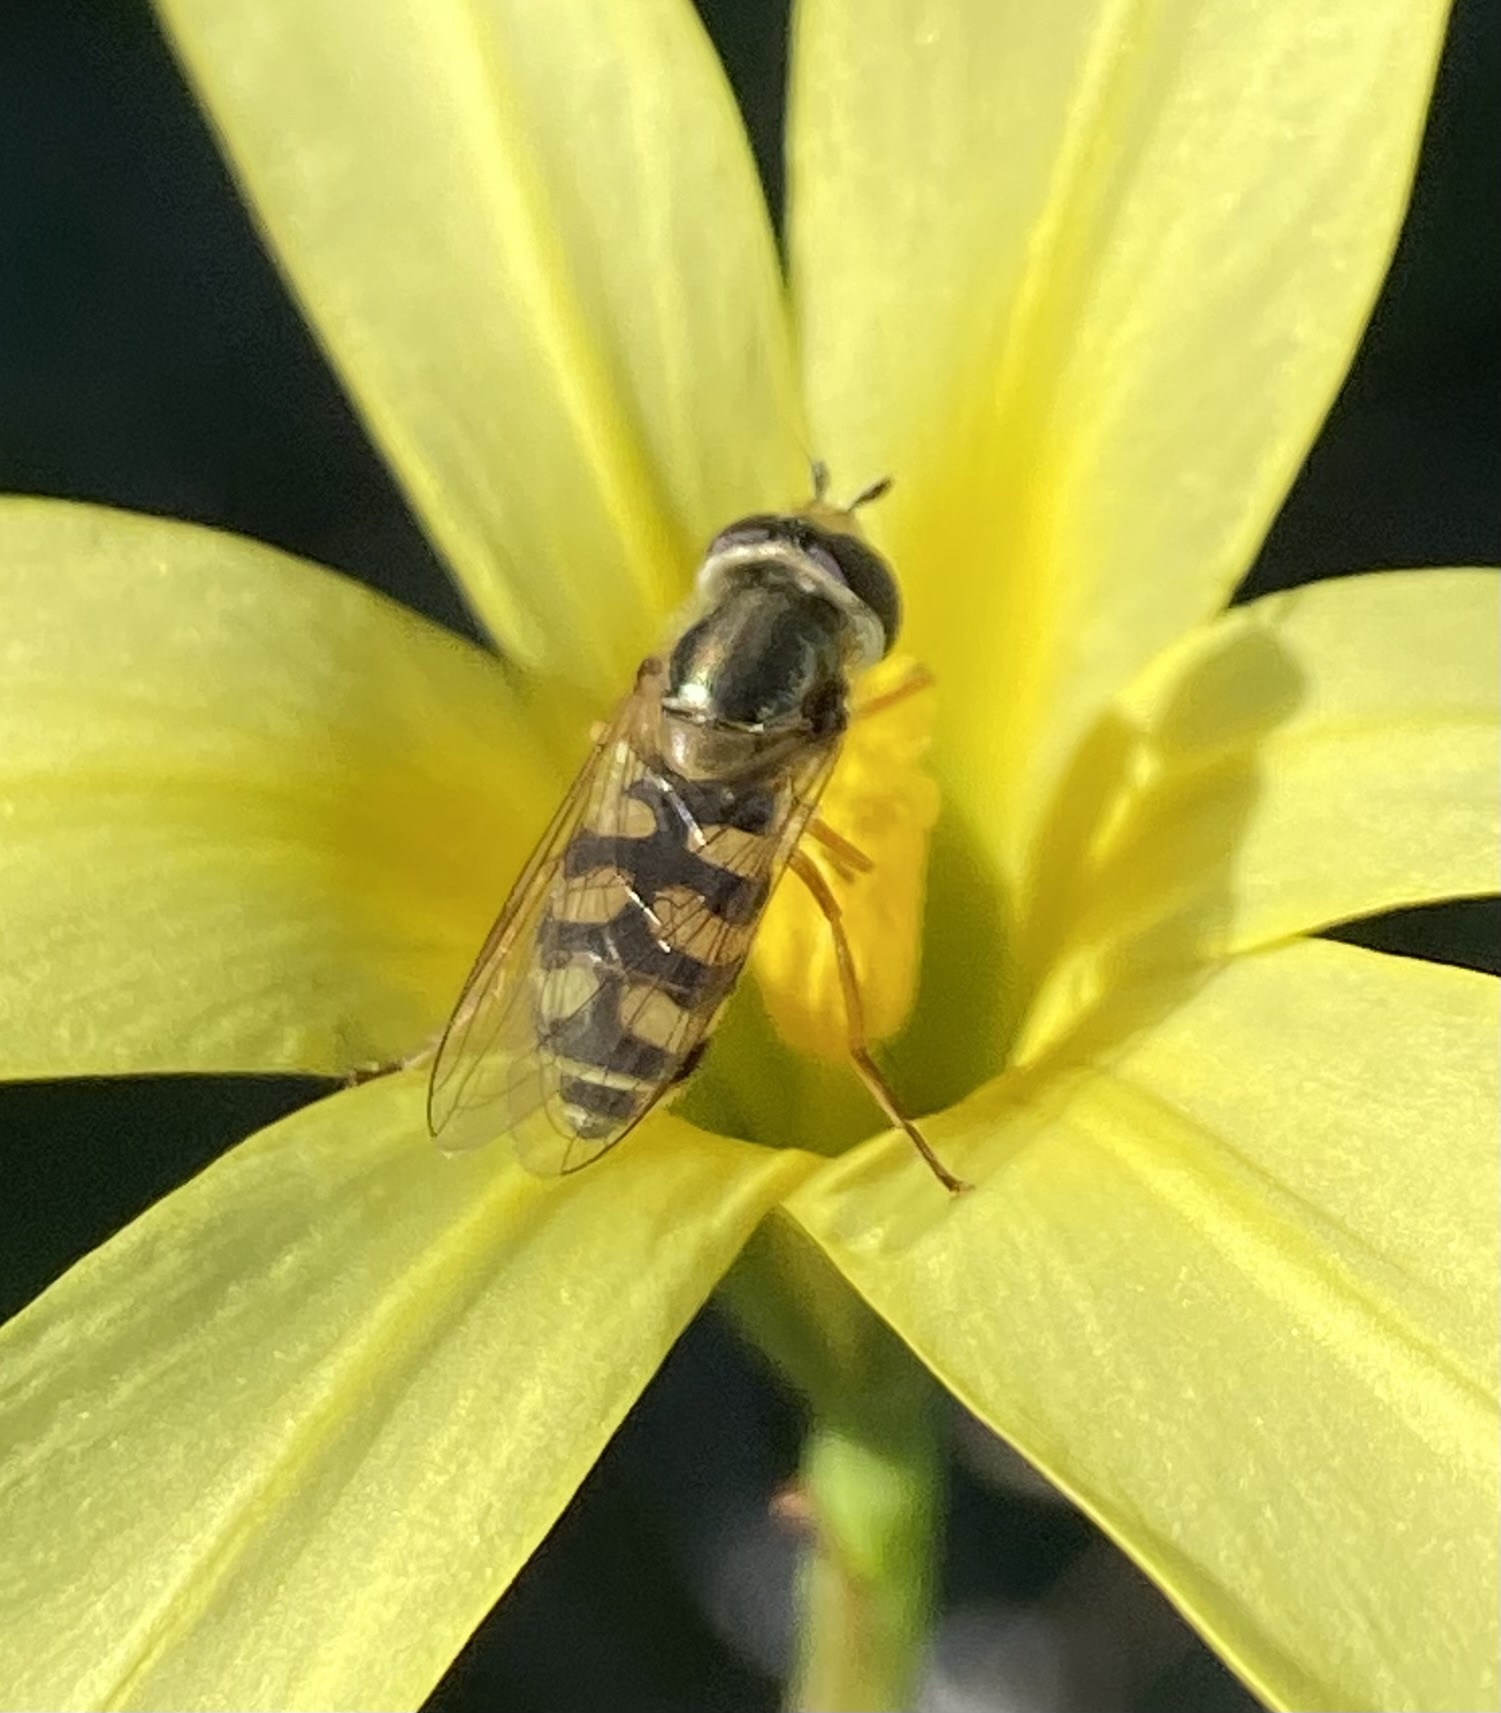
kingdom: Animalia
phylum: Arthropoda
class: Insecta
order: Diptera
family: Syrphidae
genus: Eupeodes
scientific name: Eupeodes corollae
